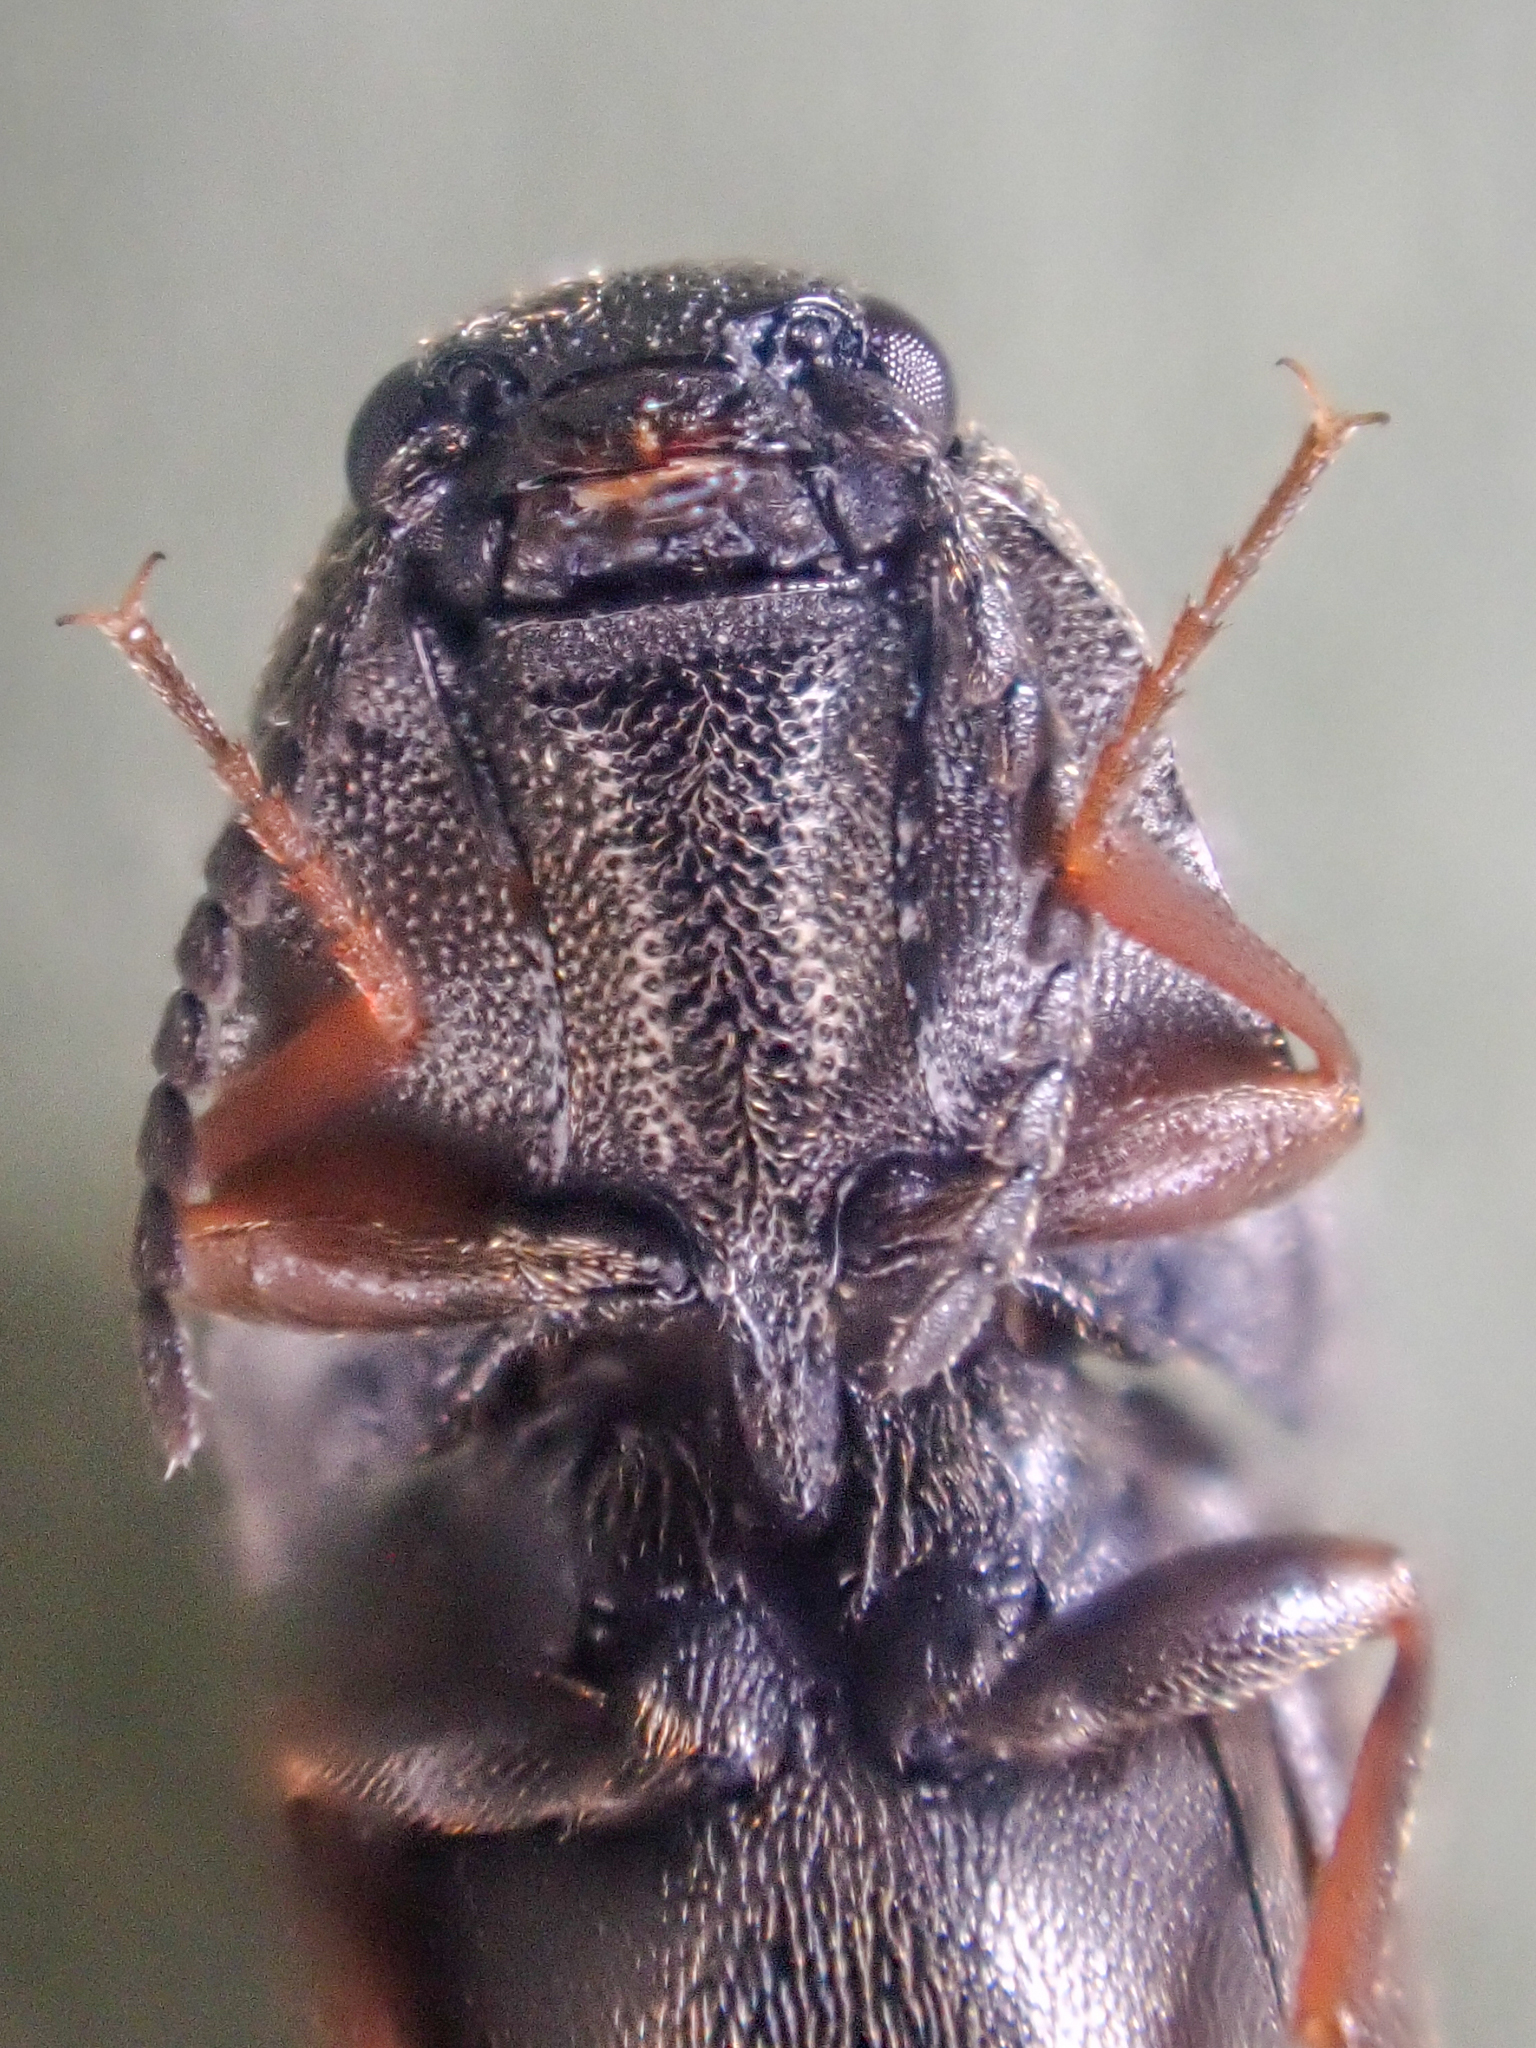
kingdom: Animalia
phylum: Arthropoda
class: Insecta
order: Coleoptera
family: Elateridae
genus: Sericus
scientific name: Sericus incongruus
